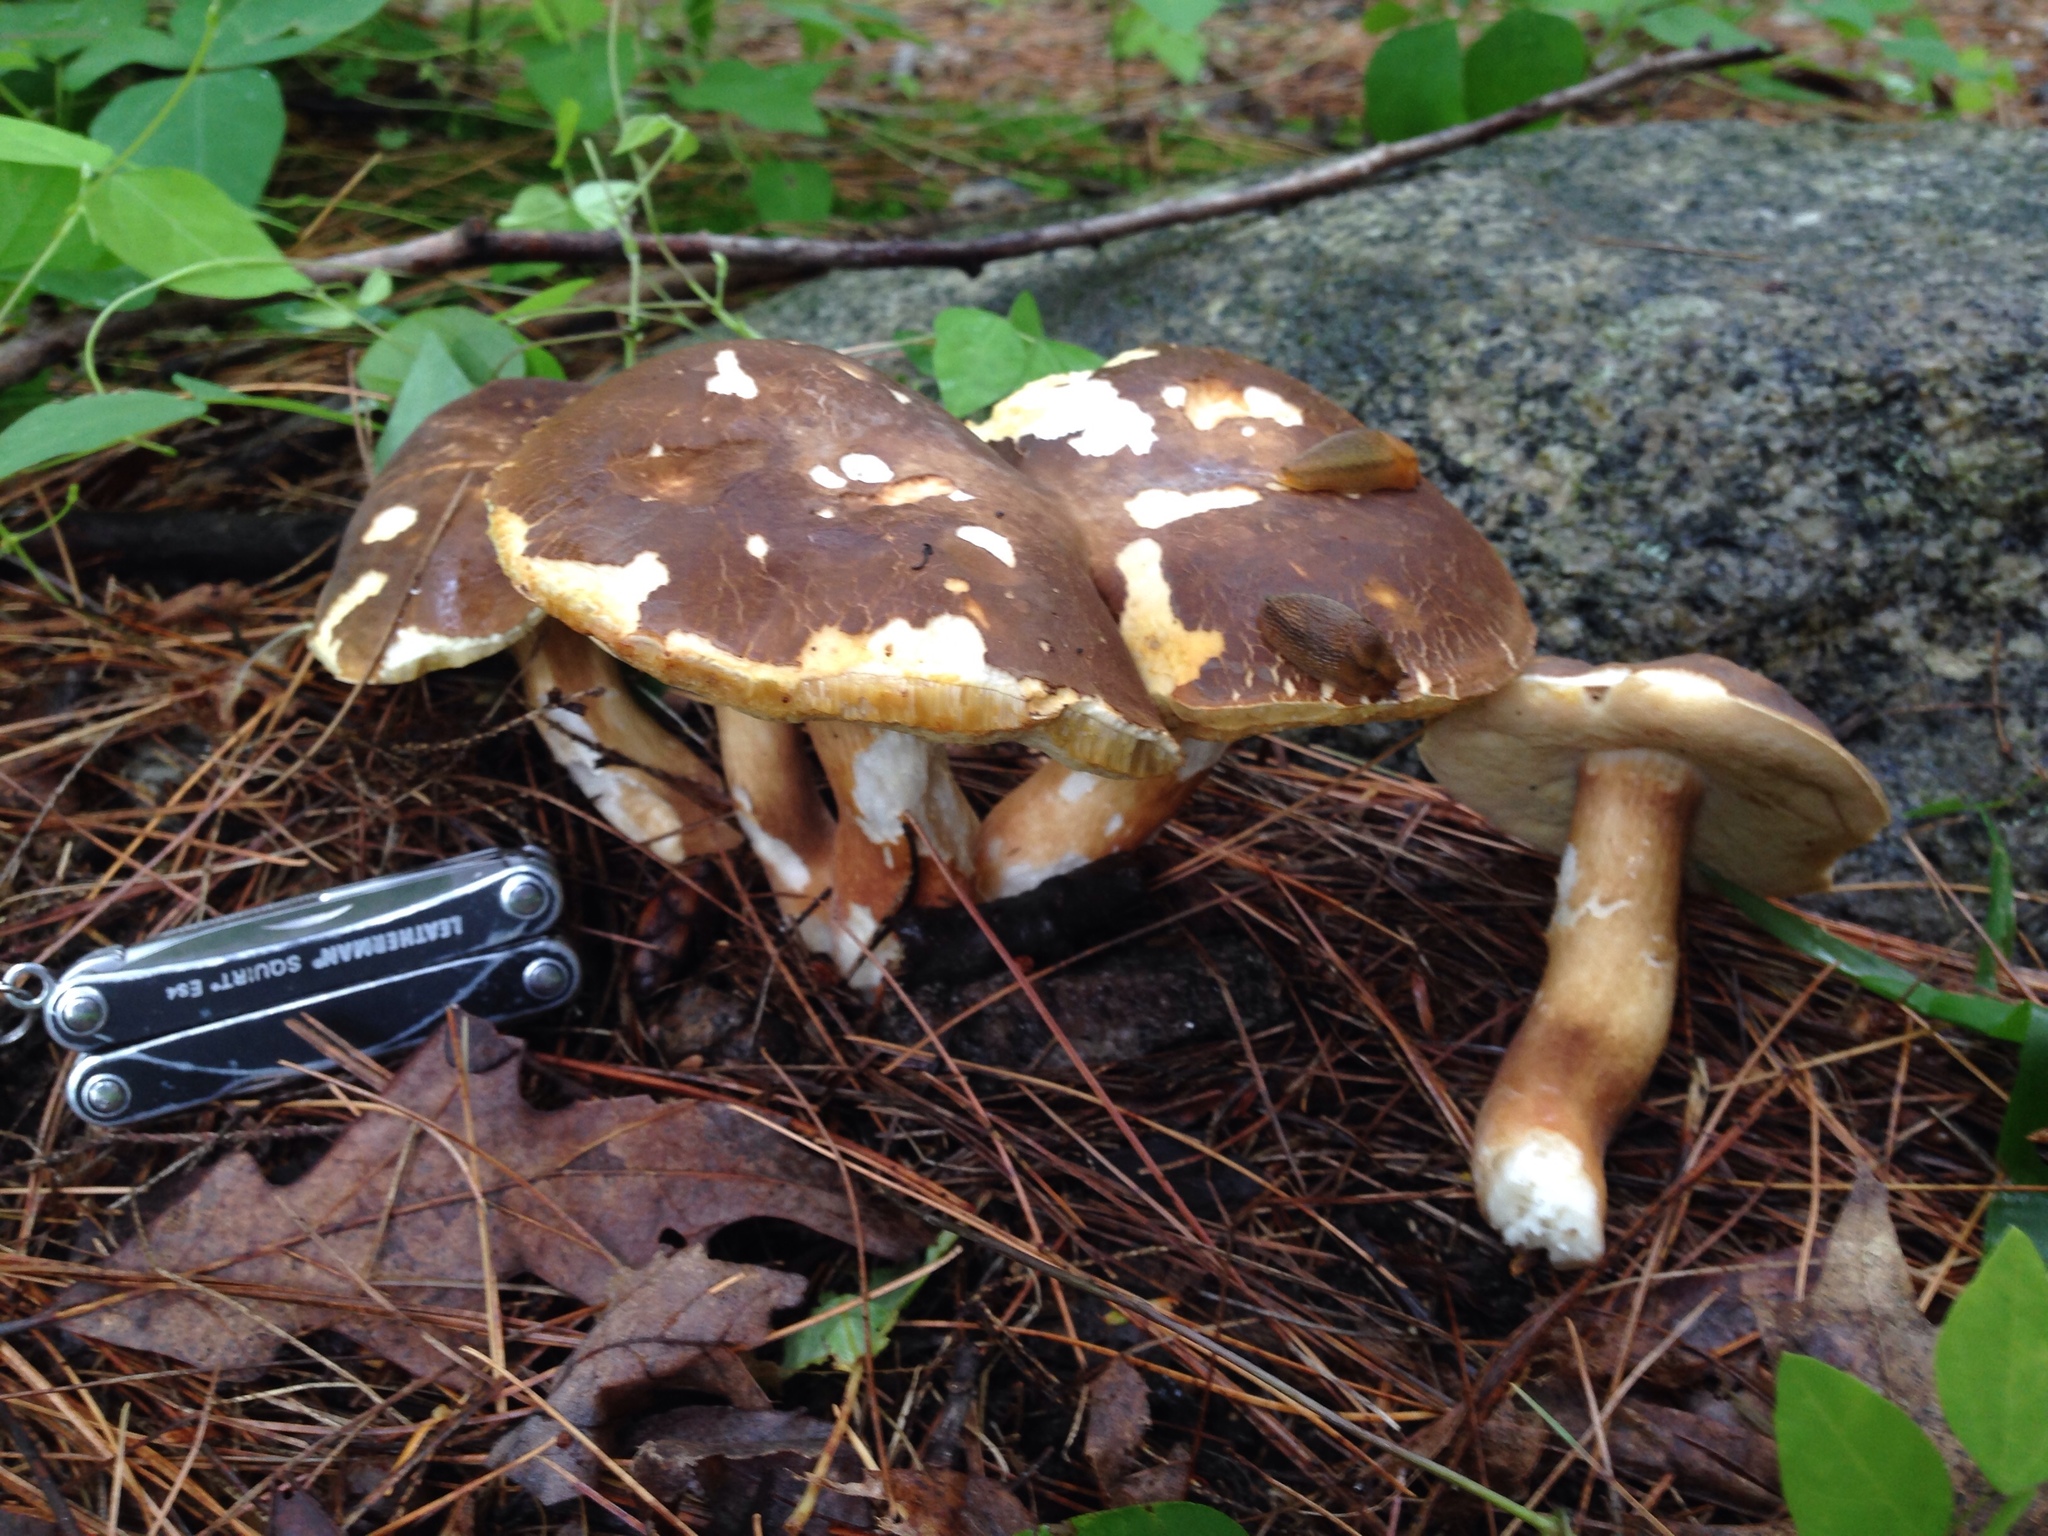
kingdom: Fungi
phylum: Basidiomycota
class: Agaricomycetes
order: Boletales
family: Boletaceae
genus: Xanthoconium
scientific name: Xanthoconium affine
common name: Spotted bolete
